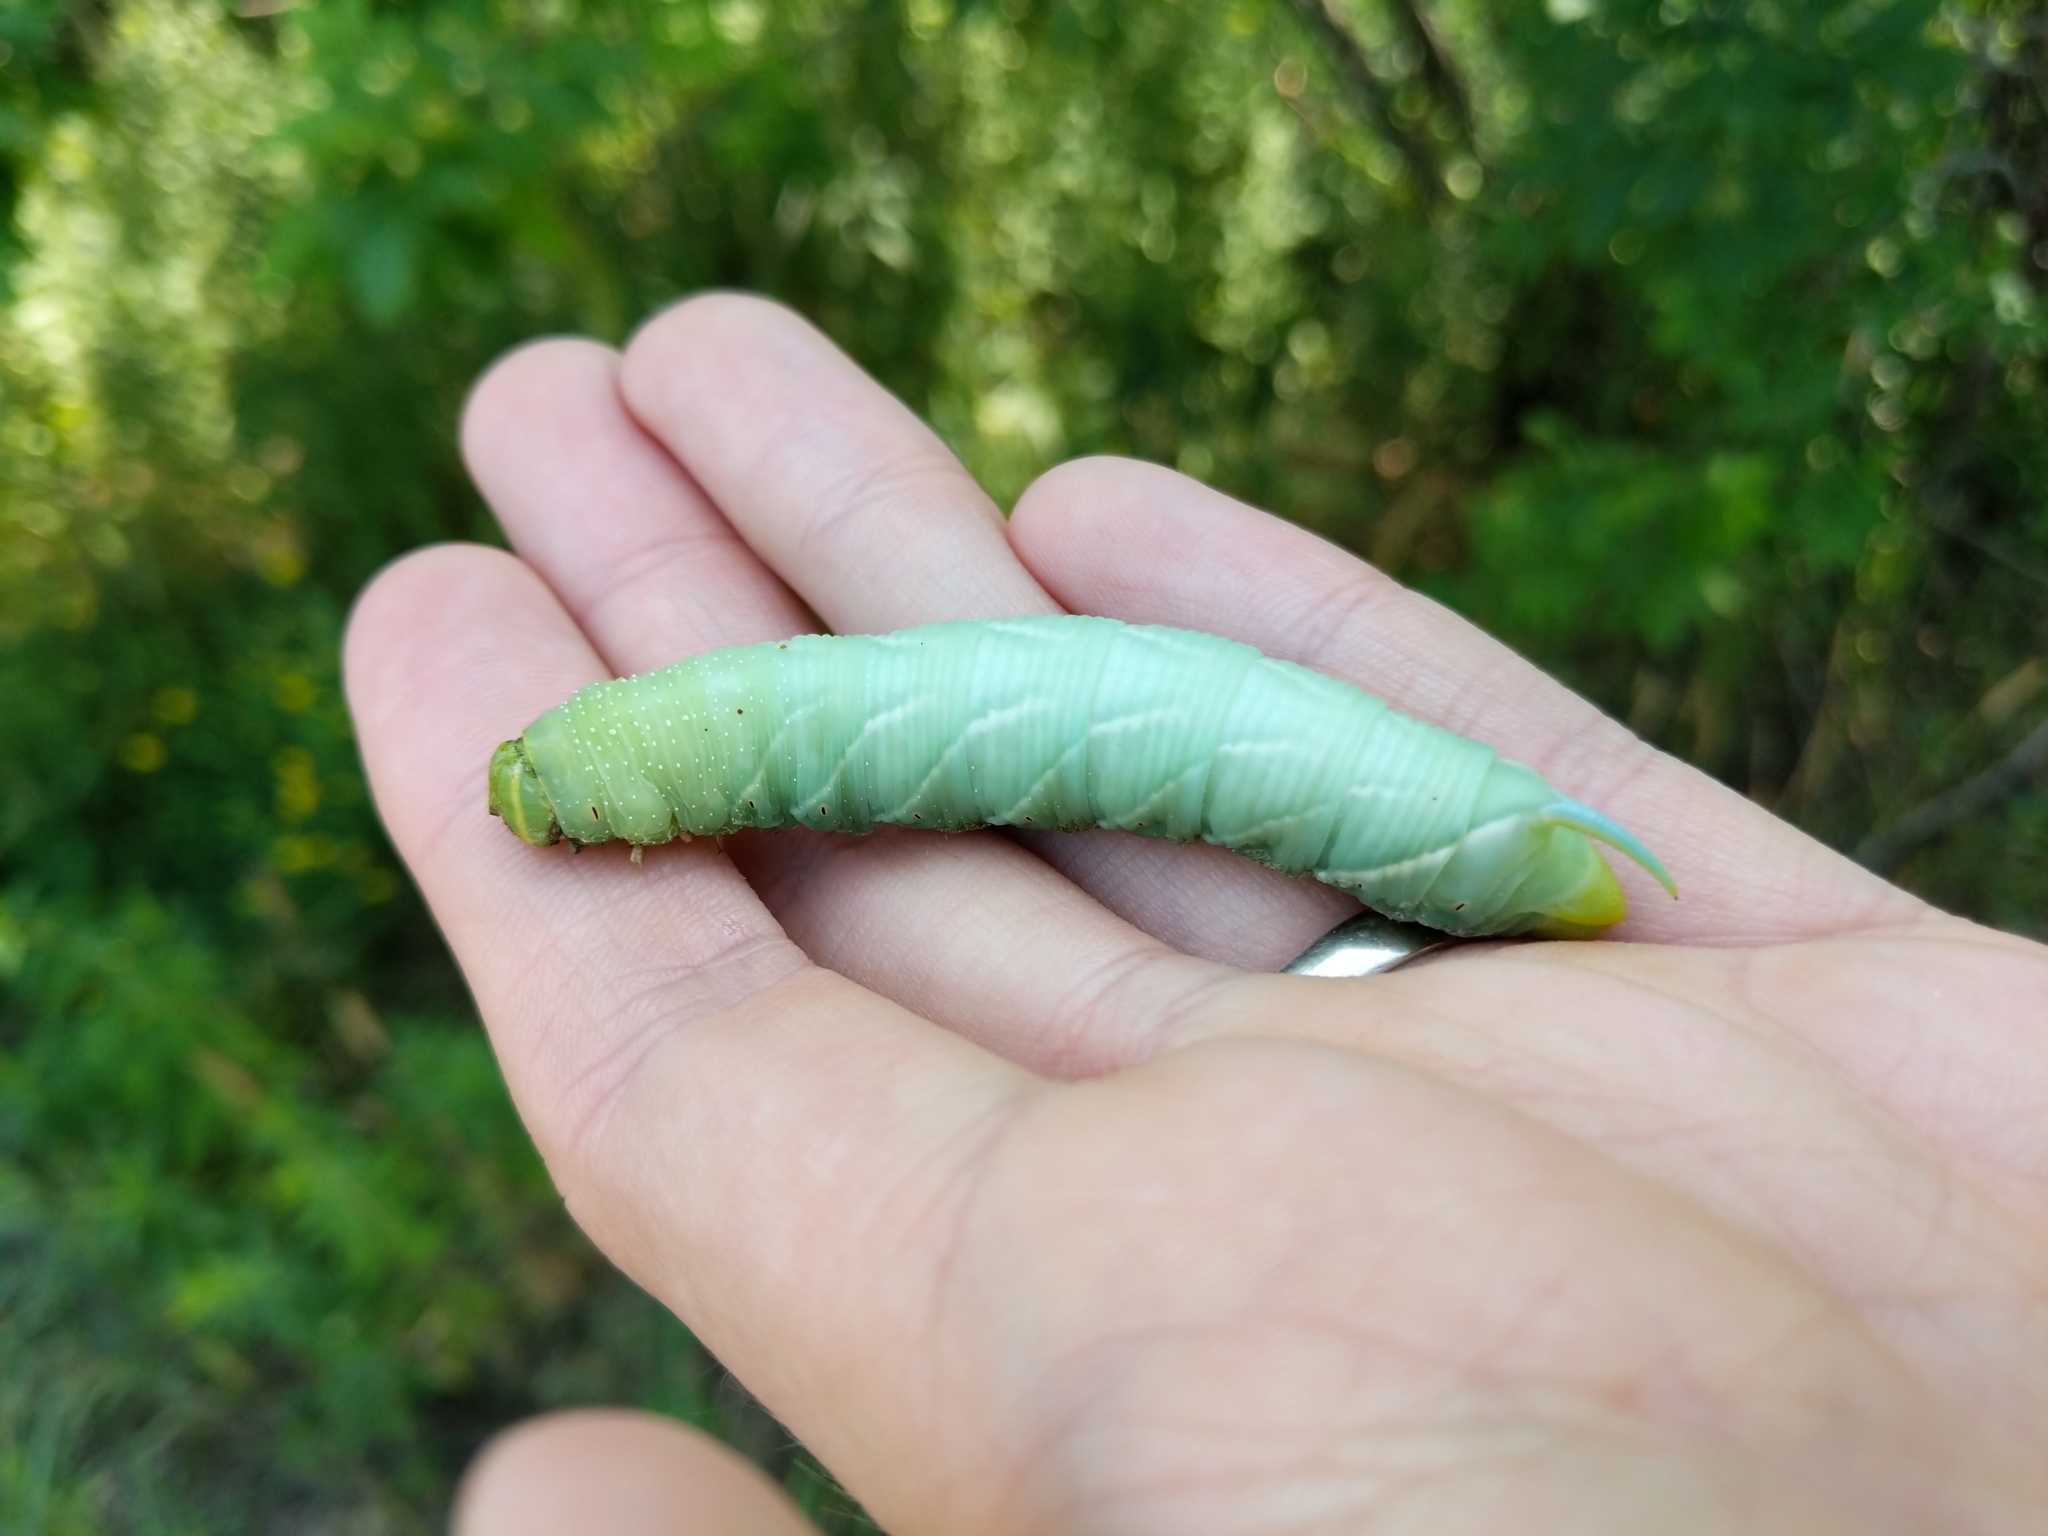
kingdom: Animalia
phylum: Arthropoda
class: Insecta
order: Lepidoptera
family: Sphingidae
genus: Sphinx
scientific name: Sphinx chersis
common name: Great ash sphinx
